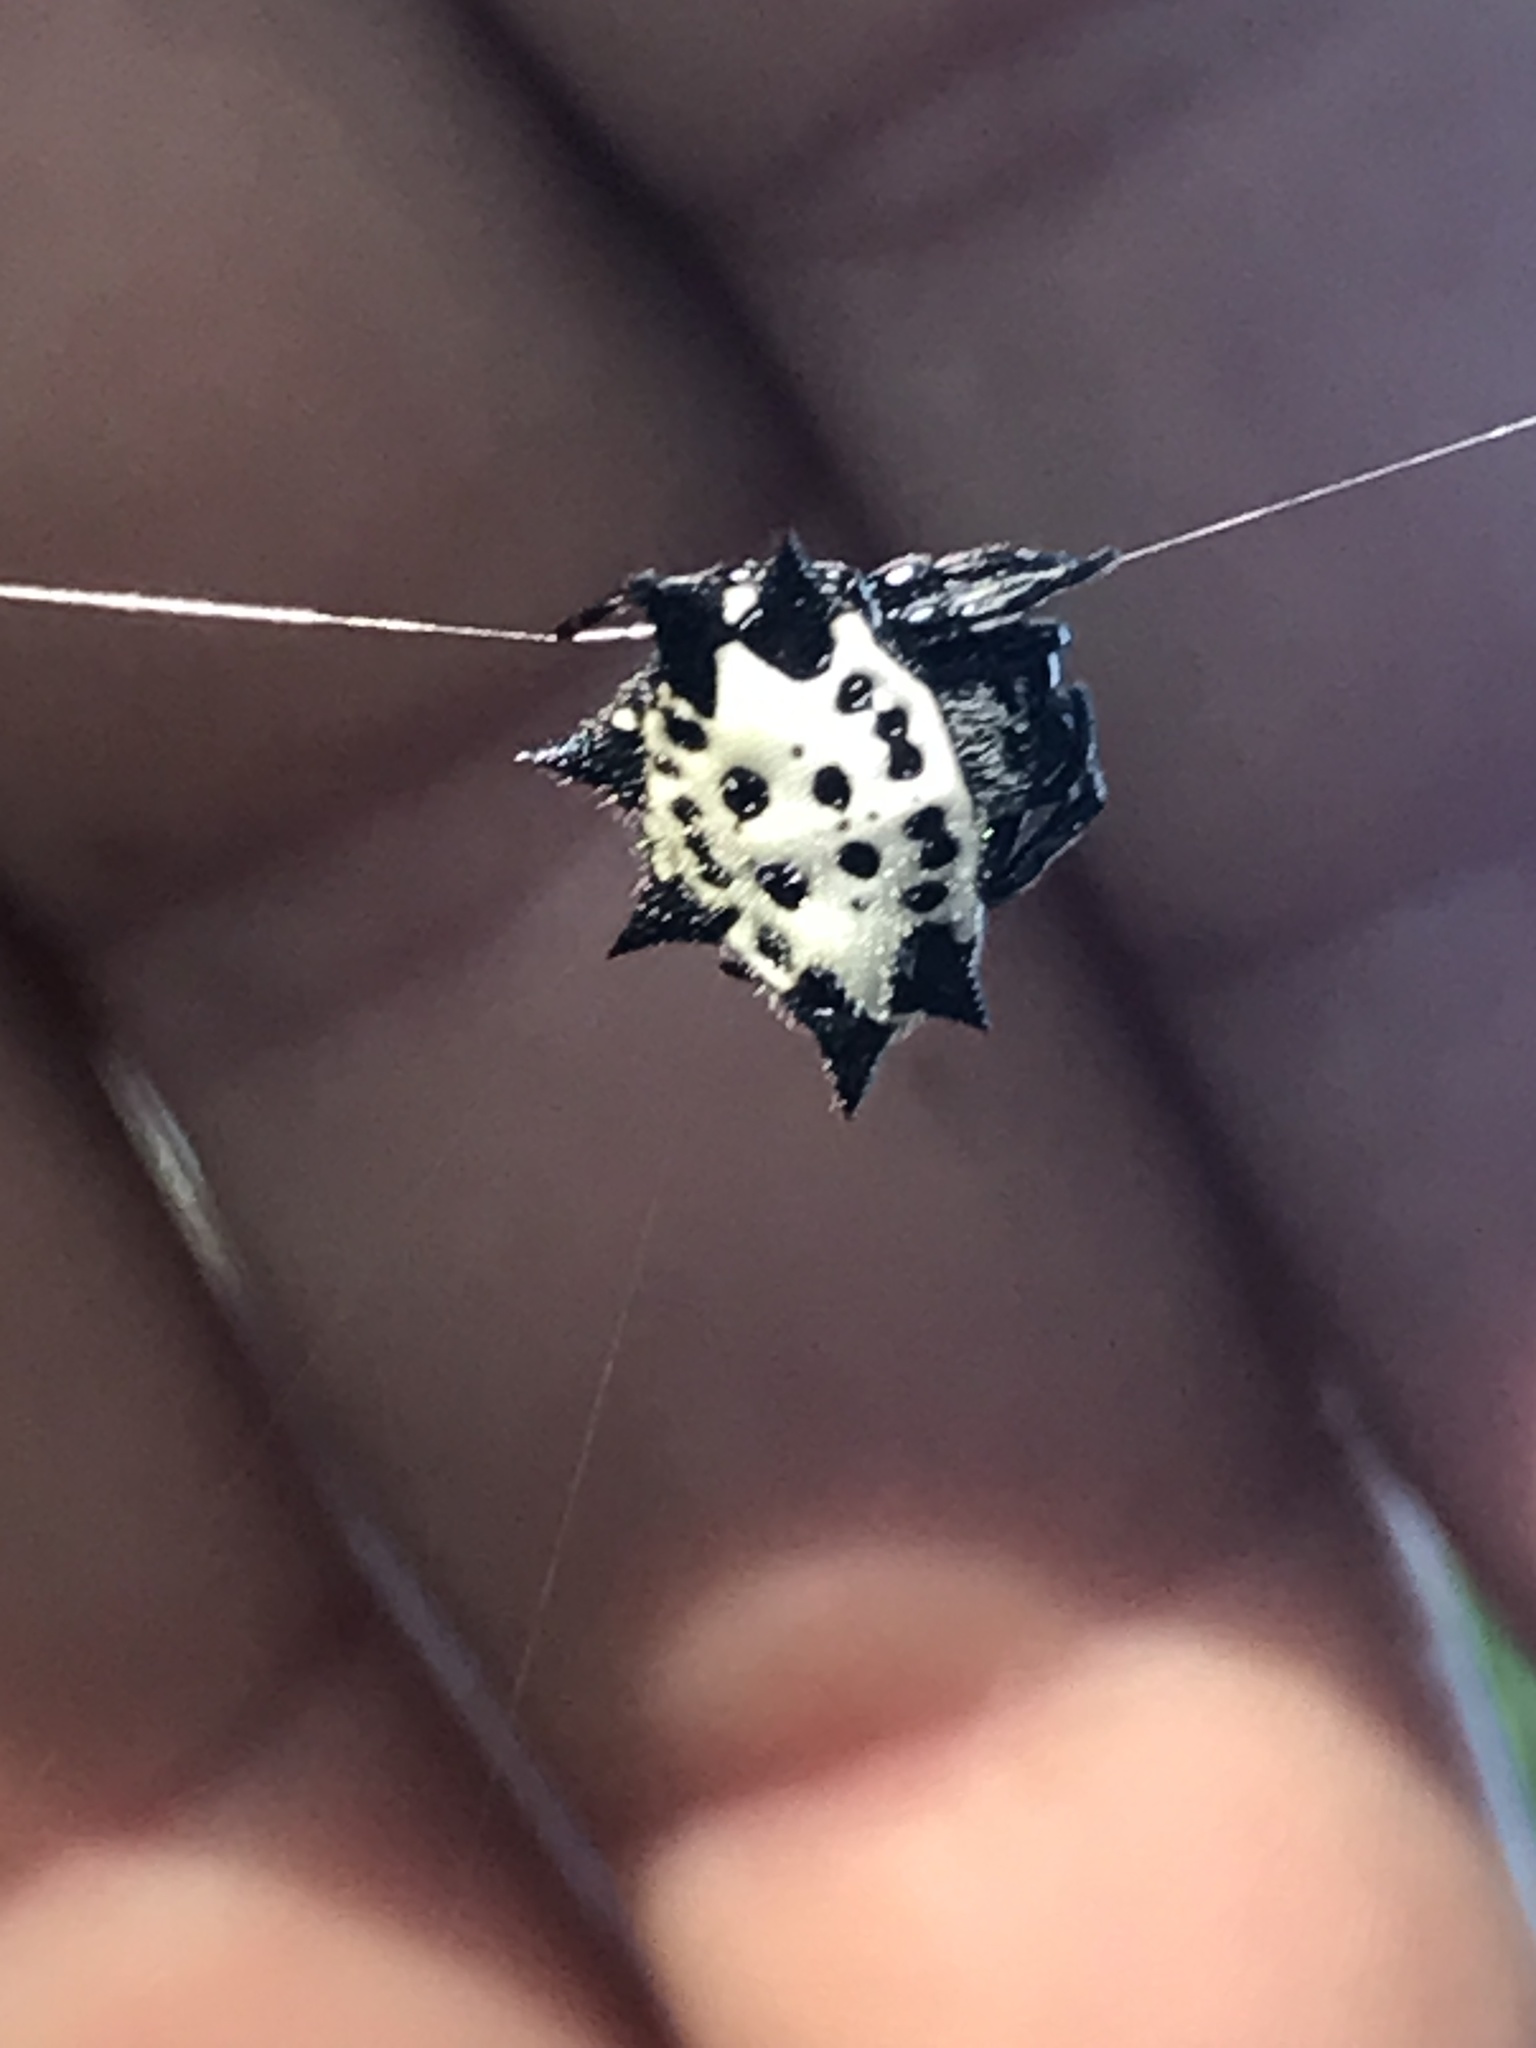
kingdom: Animalia
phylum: Arthropoda
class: Arachnida
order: Araneae
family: Araneidae
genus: Gasteracantha
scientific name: Gasteracantha cancriformis
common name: Orb weavers
